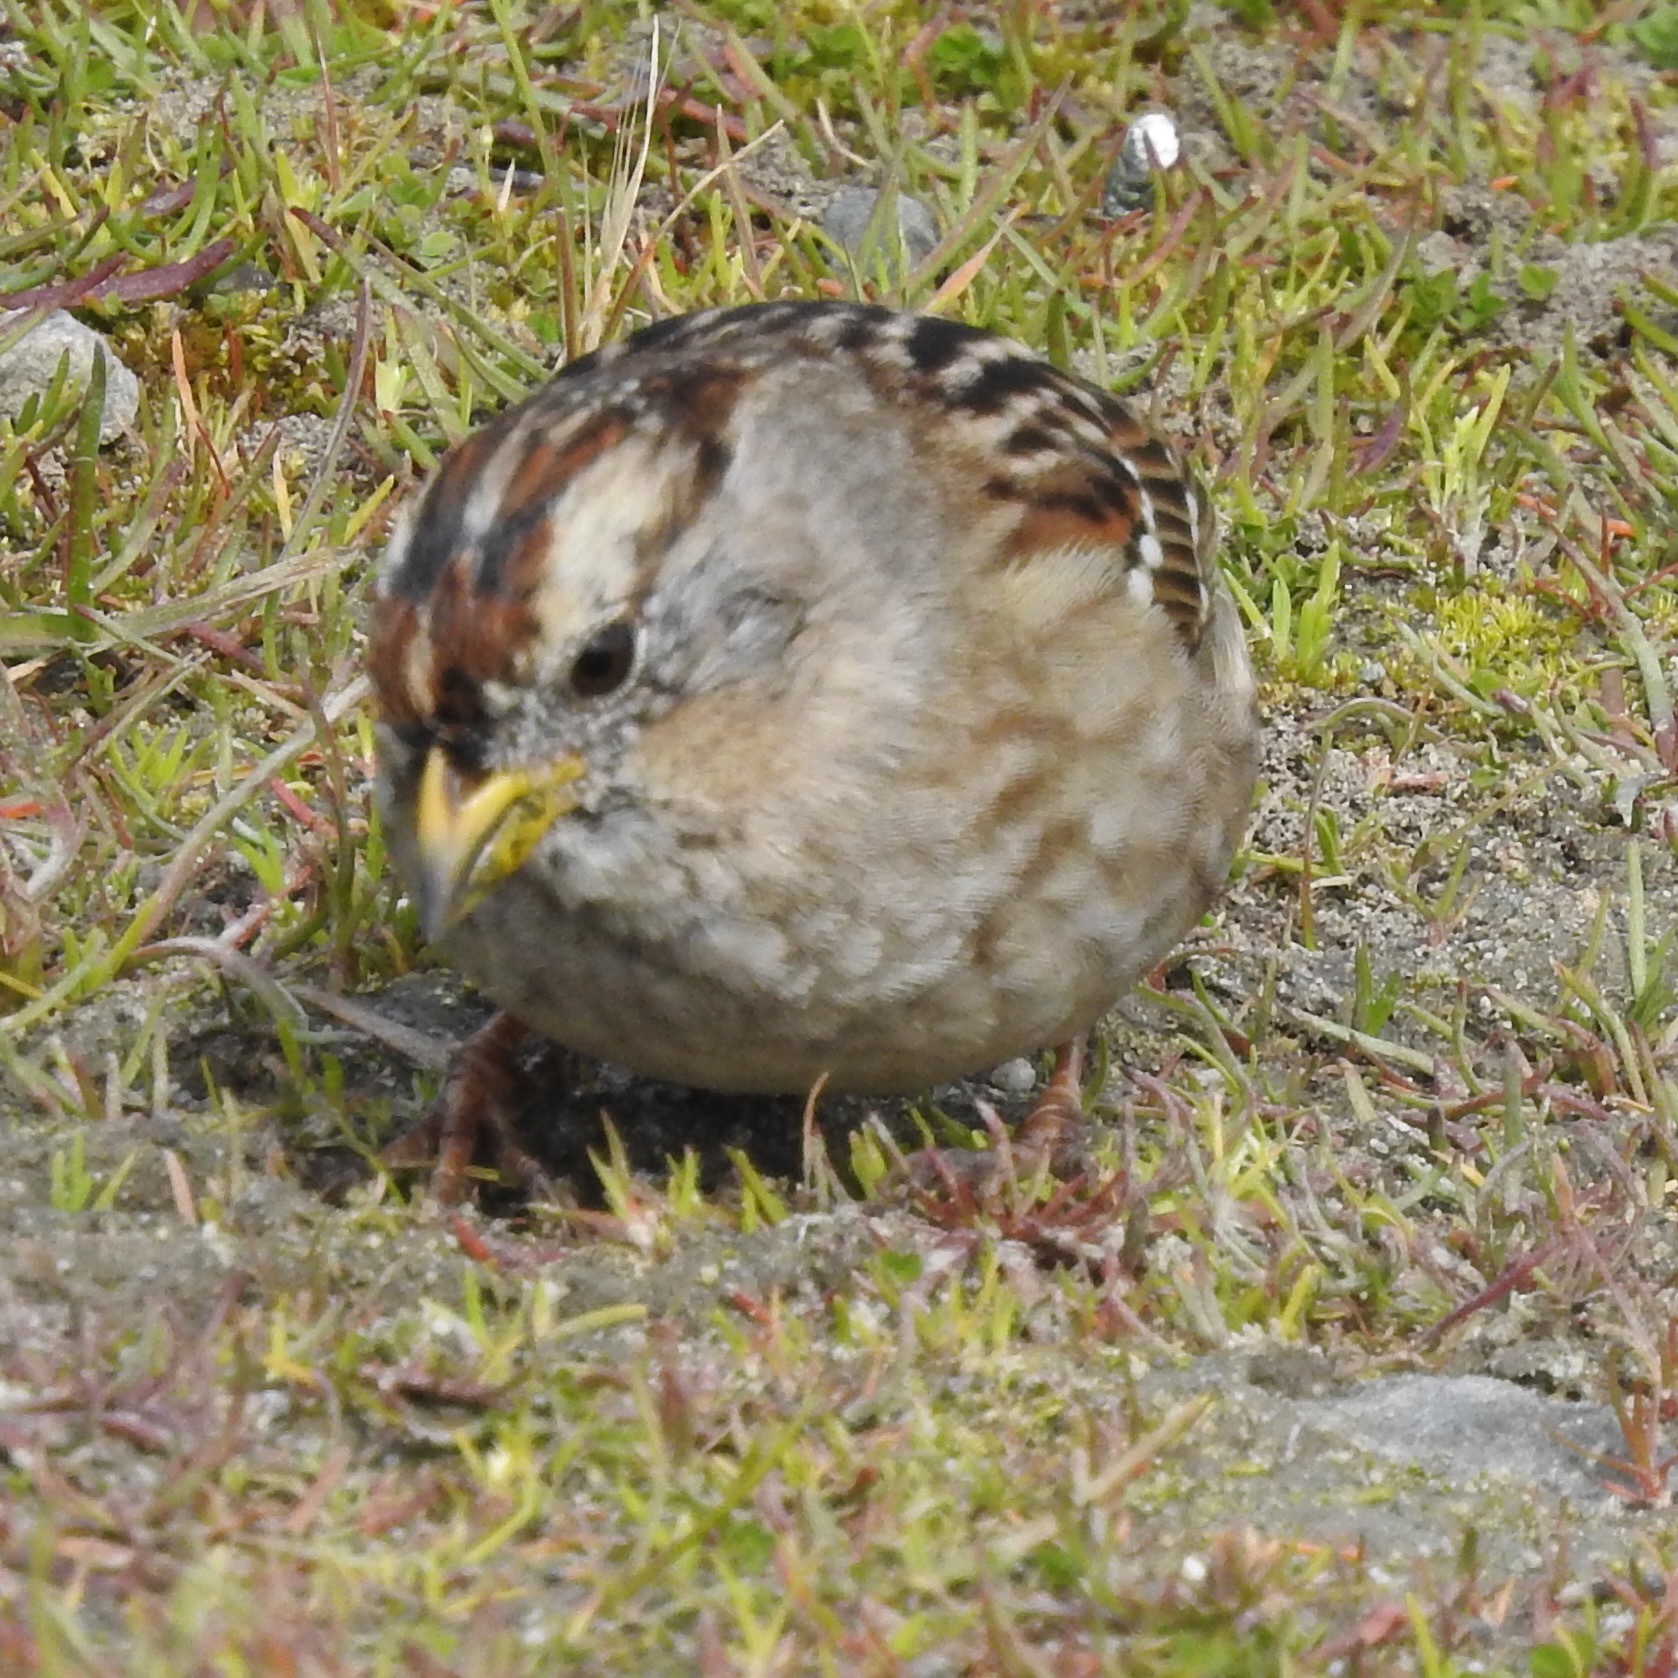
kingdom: Animalia
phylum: Chordata
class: Aves
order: Passeriformes
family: Passerellidae
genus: Zonotrichia
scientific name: Zonotrichia leucophrys
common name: White-crowned sparrow
